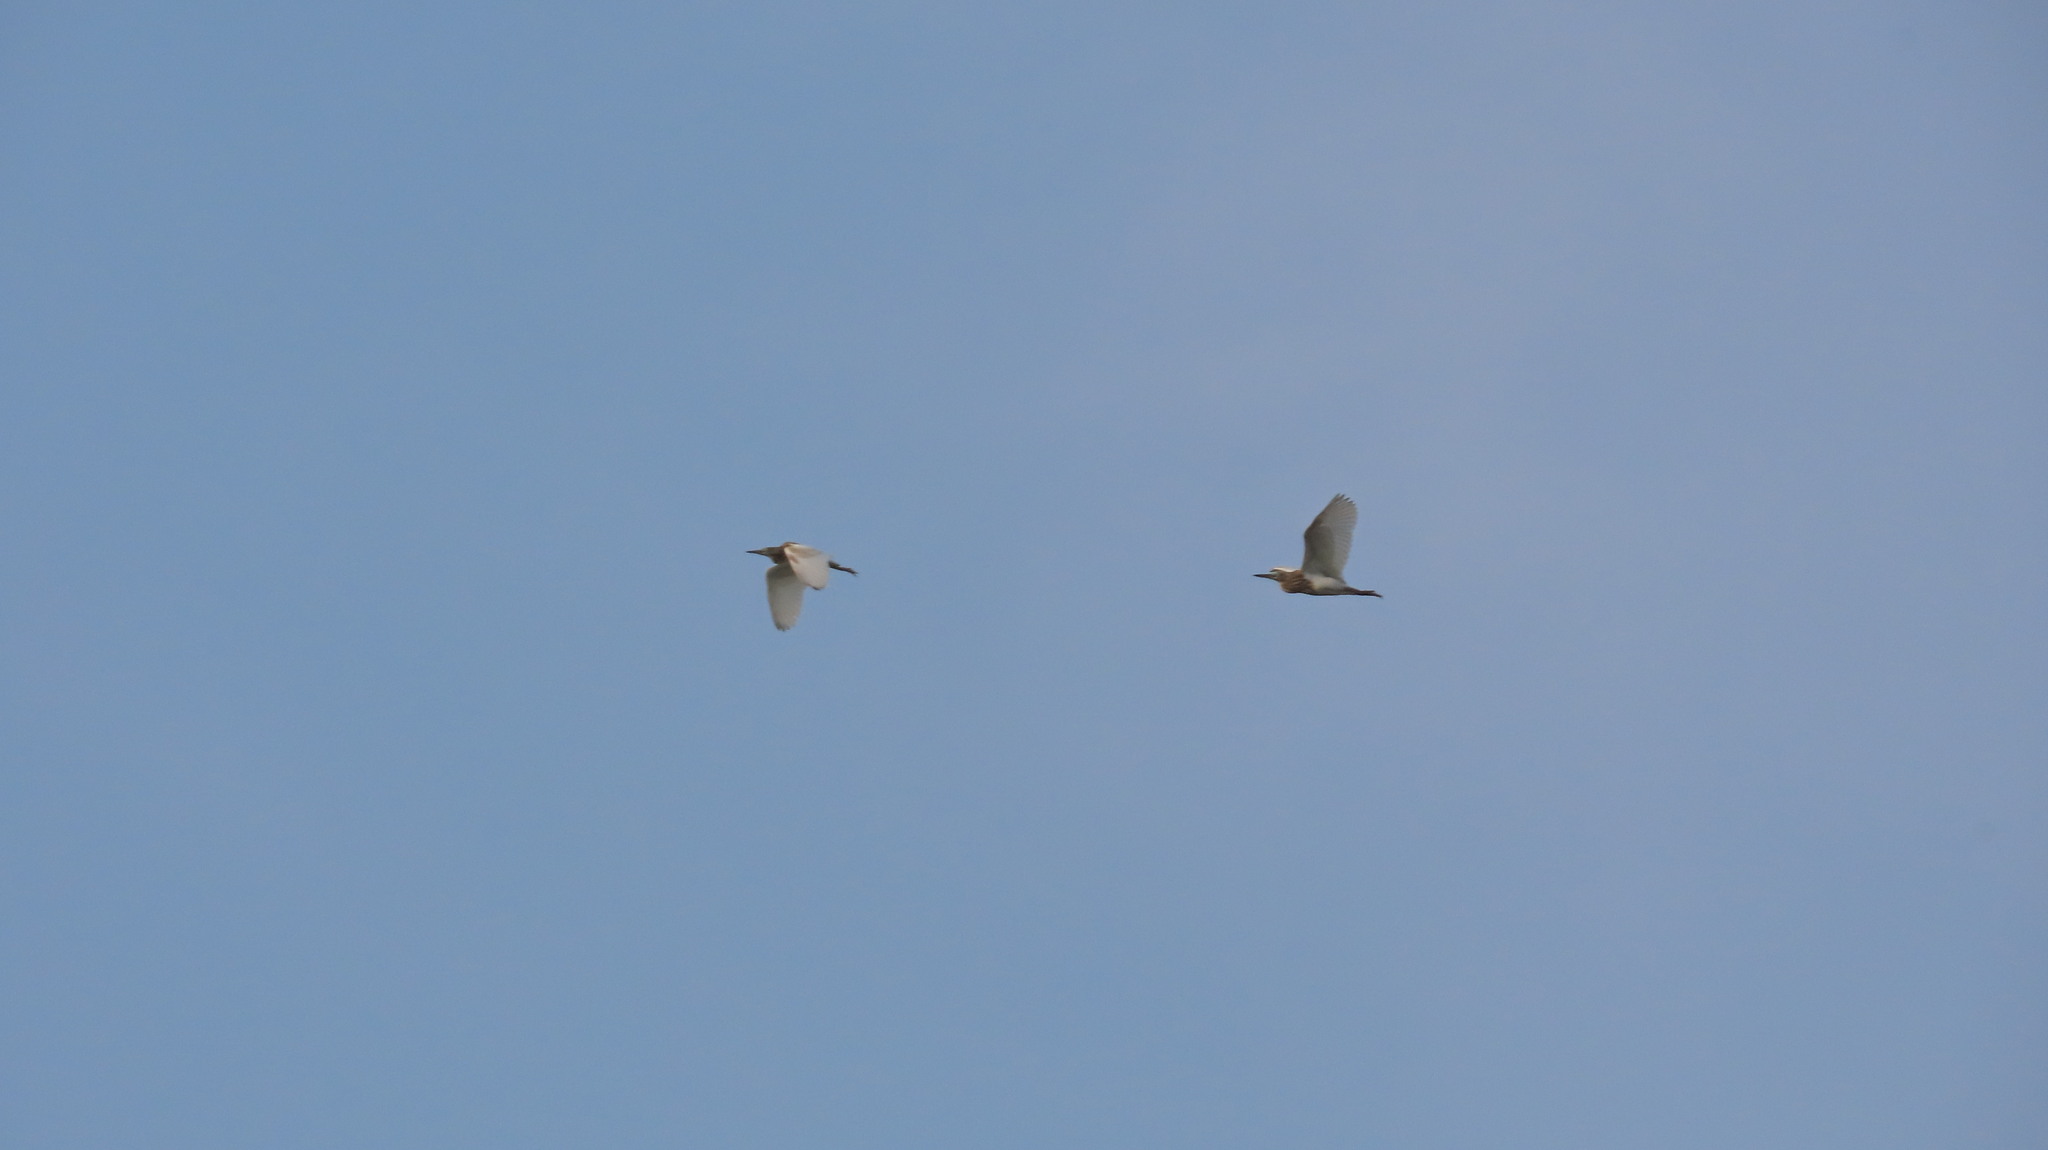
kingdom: Animalia
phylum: Chordata
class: Aves
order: Pelecaniformes
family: Ardeidae
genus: Ardeola
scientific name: Ardeola grayii
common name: Indian pond heron
